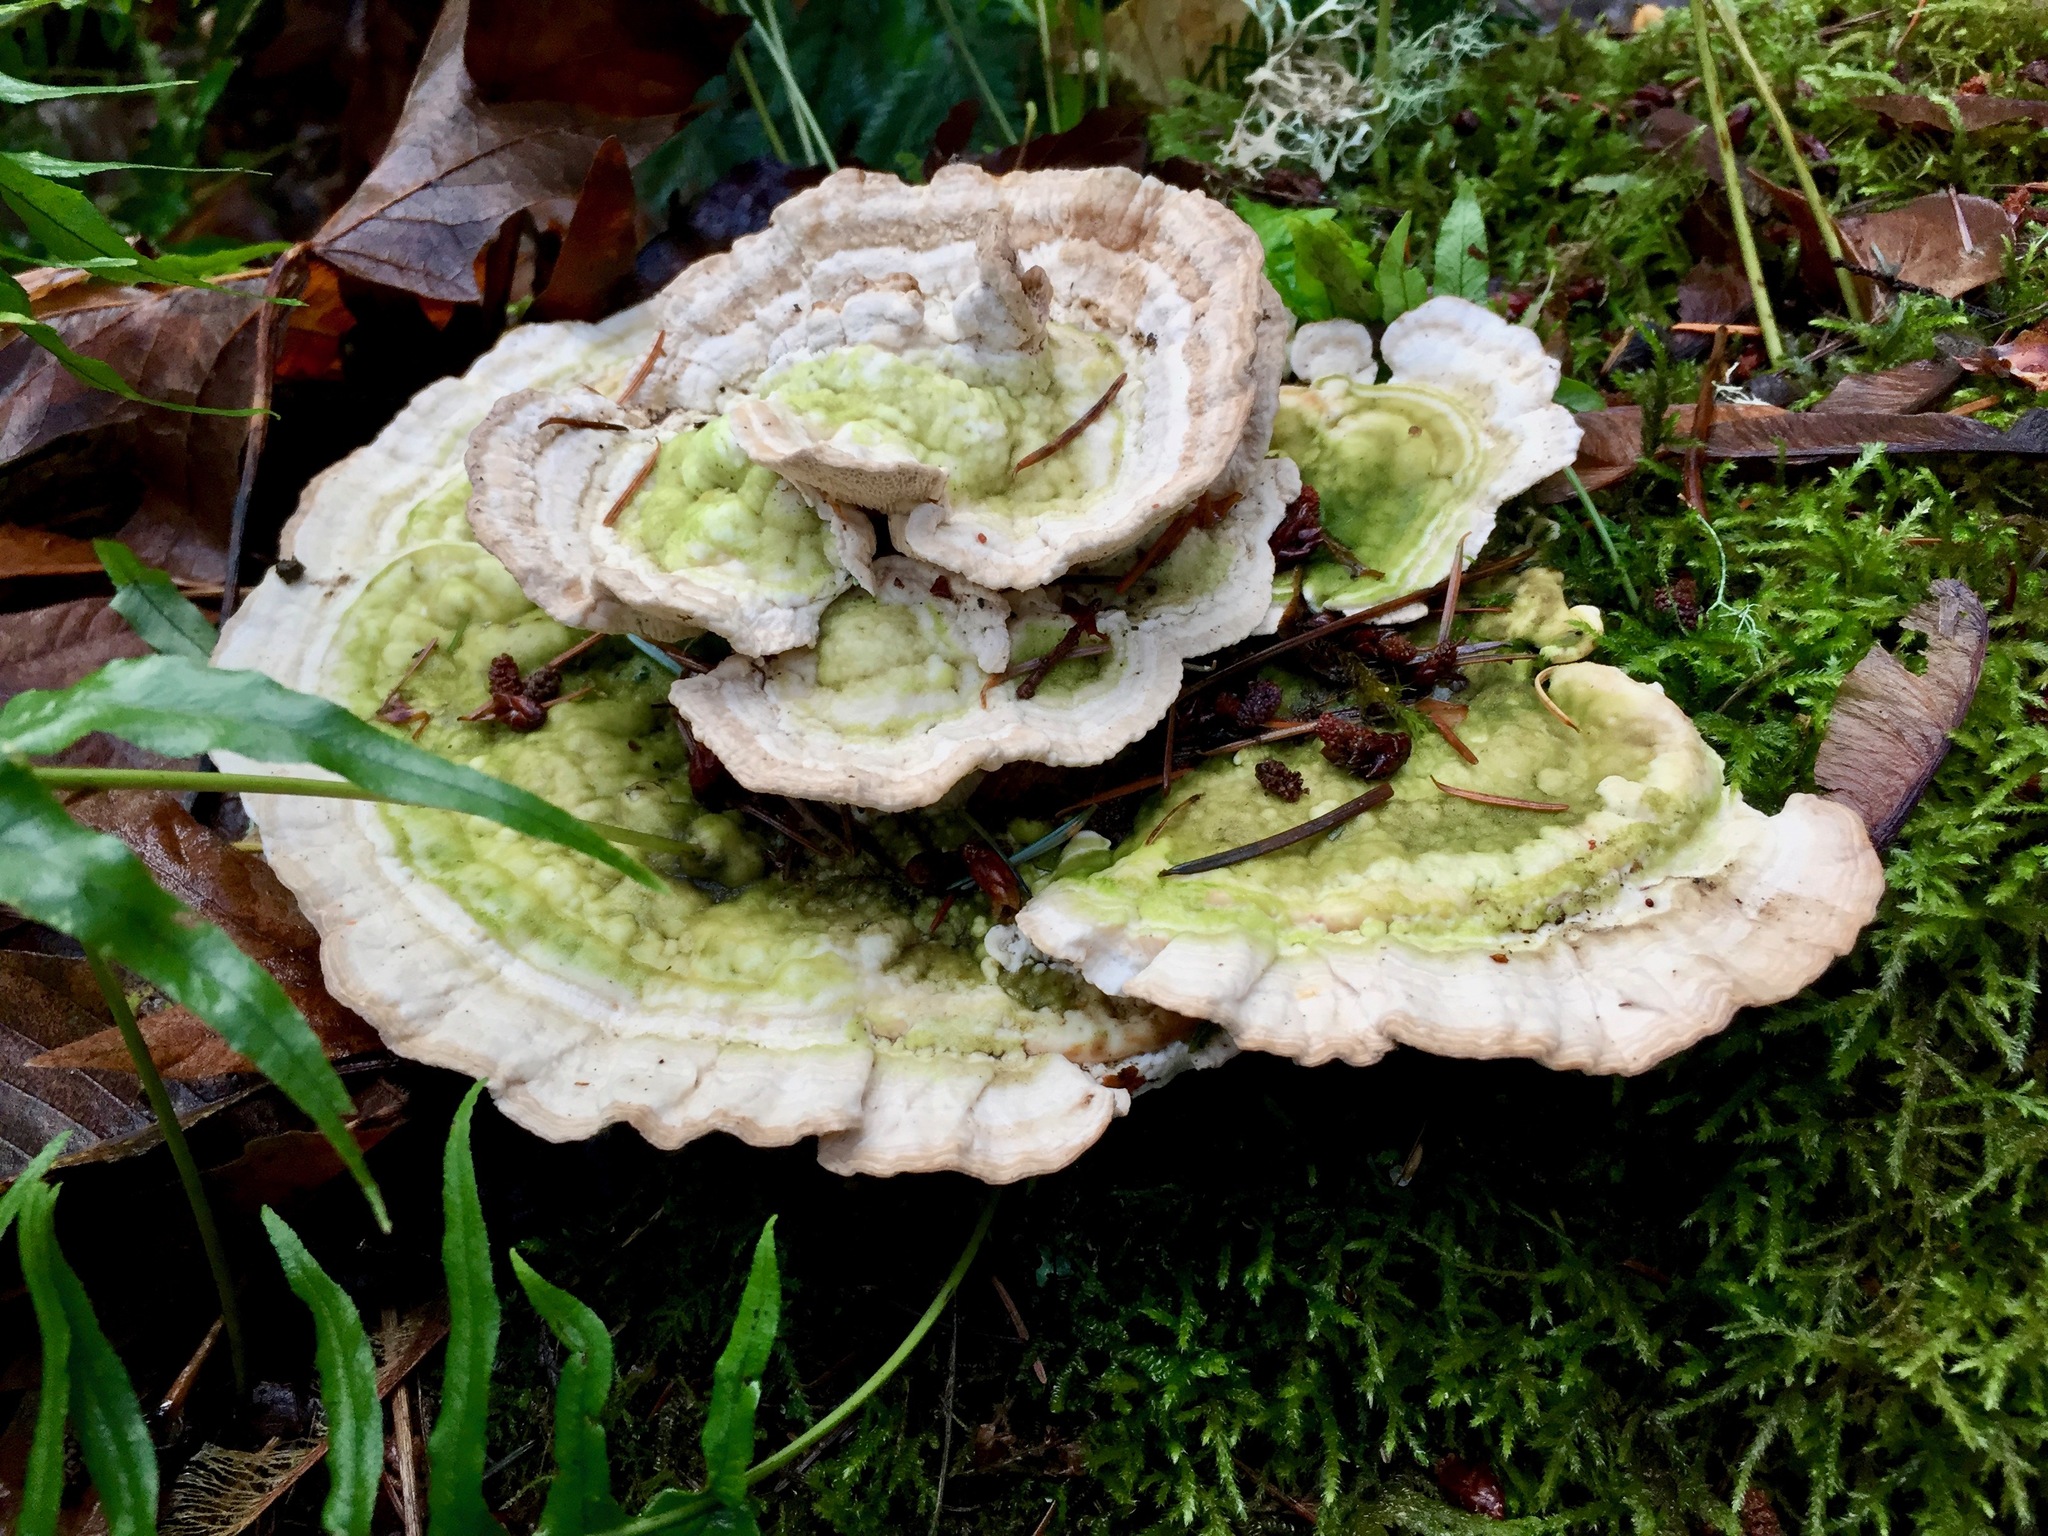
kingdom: Fungi
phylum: Basidiomycota
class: Agaricomycetes
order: Polyporales
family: Polyporaceae
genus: Trametes
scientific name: Trametes versicolor
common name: Turkeytail
